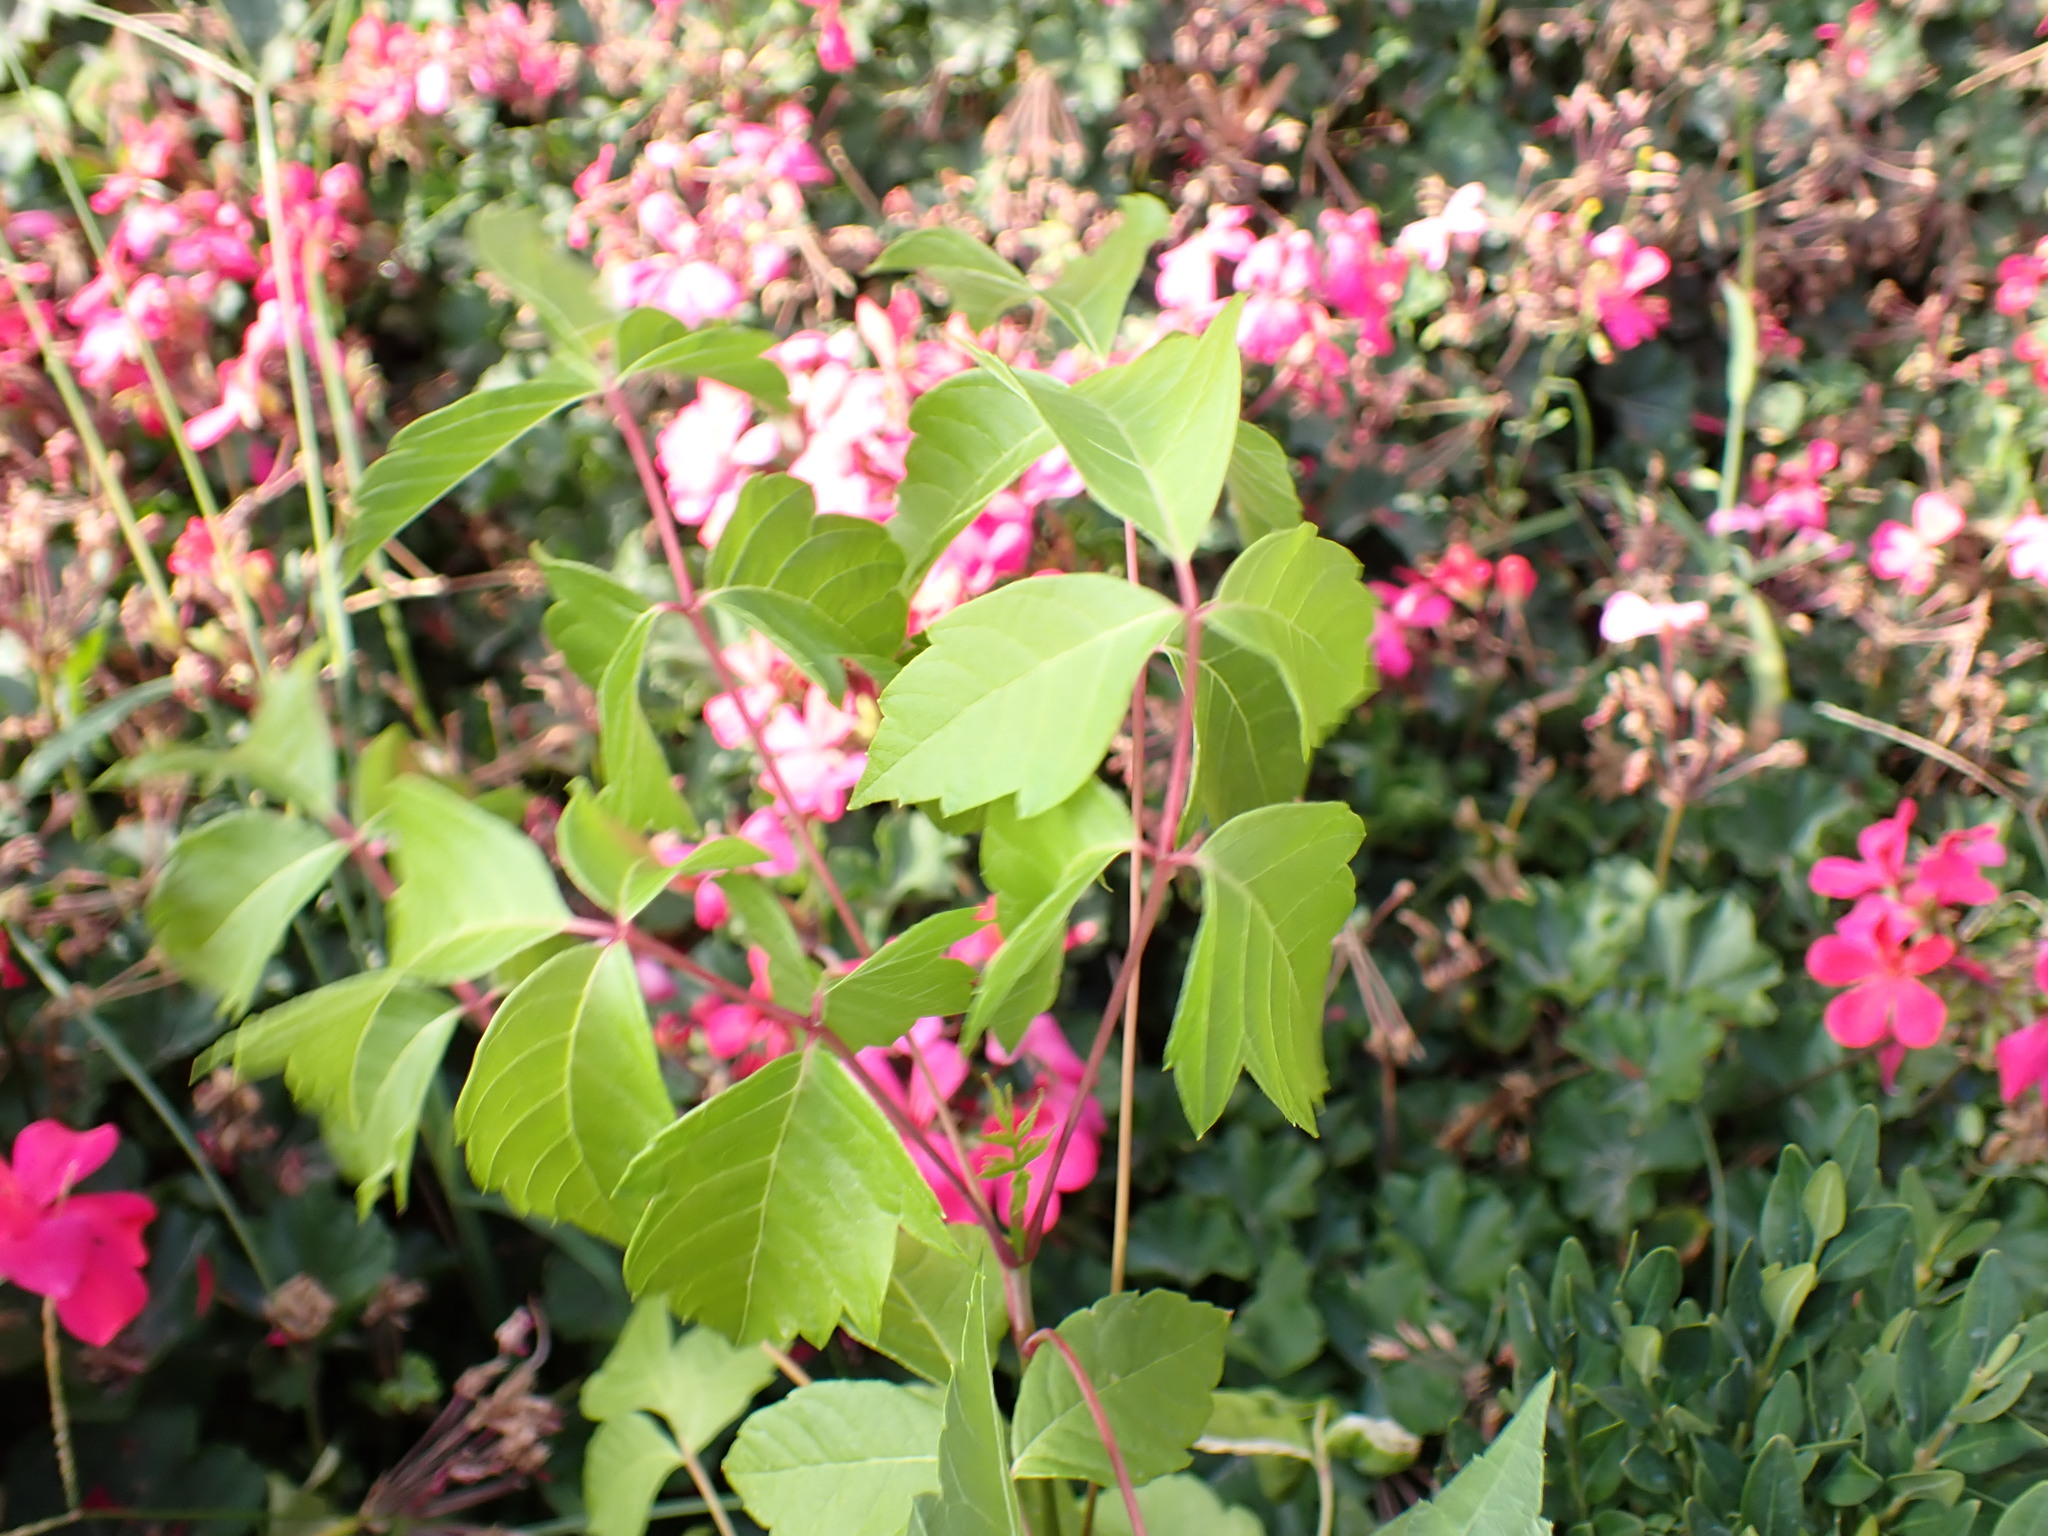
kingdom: Plantae
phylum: Tracheophyta
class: Magnoliopsida
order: Sapindales
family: Sapindaceae
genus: Acer
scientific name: Acer negundo
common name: Ashleaf maple
